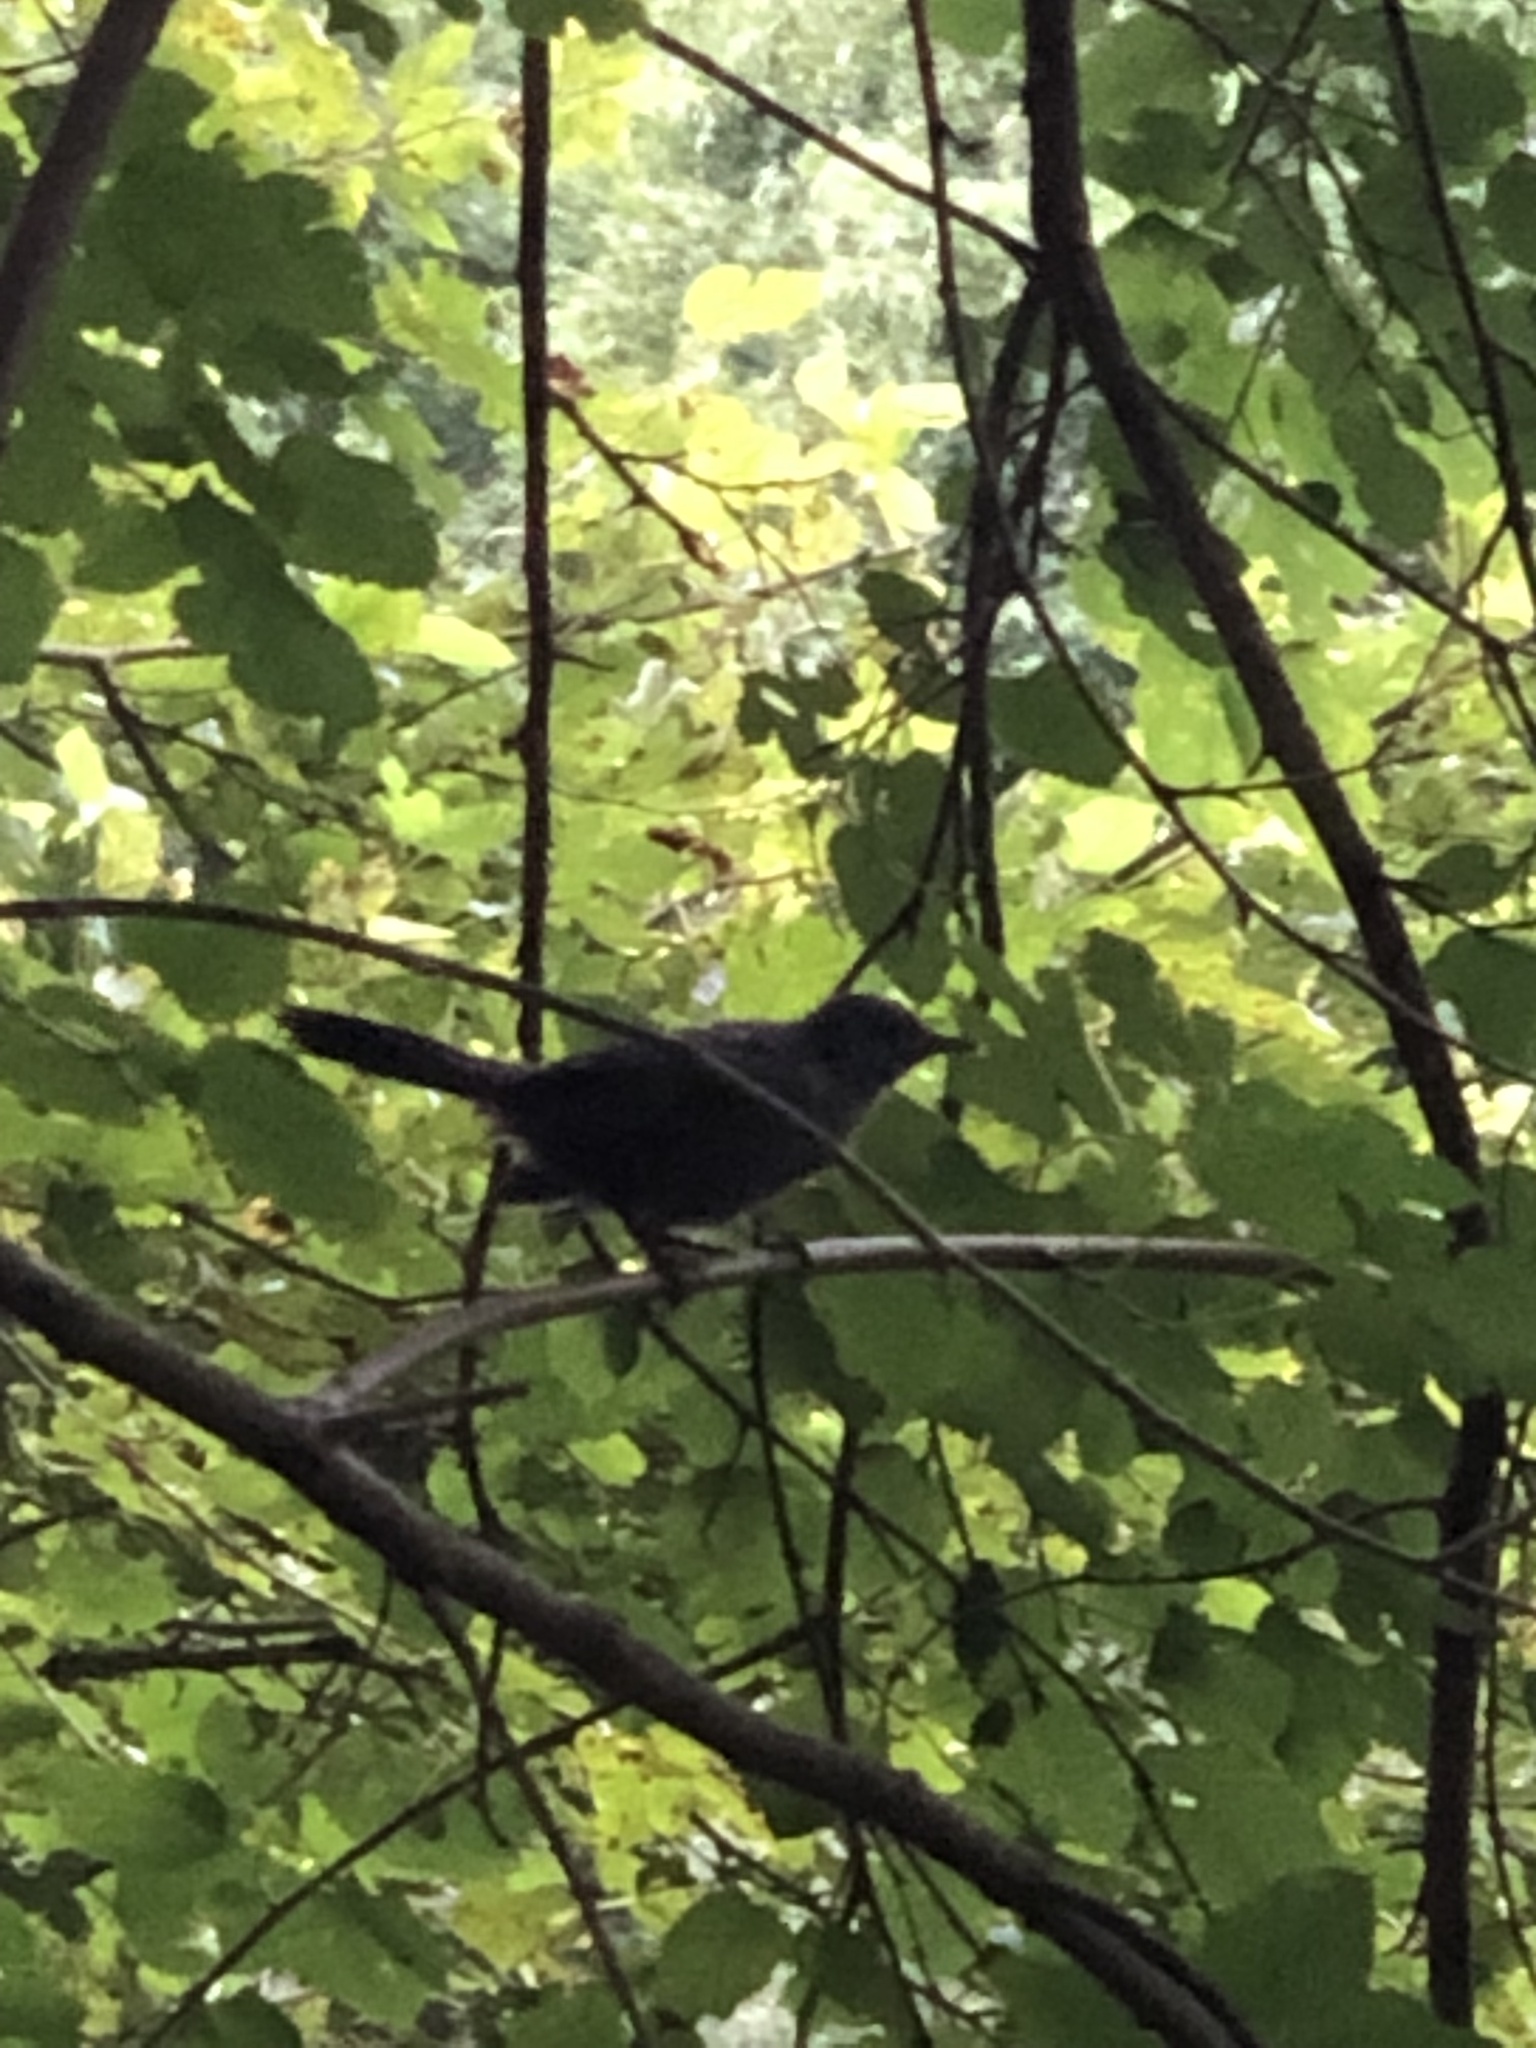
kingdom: Animalia
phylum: Chordata
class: Aves
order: Passeriformes
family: Mimidae
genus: Dumetella
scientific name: Dumetella carolinensis
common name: Gray catbird
